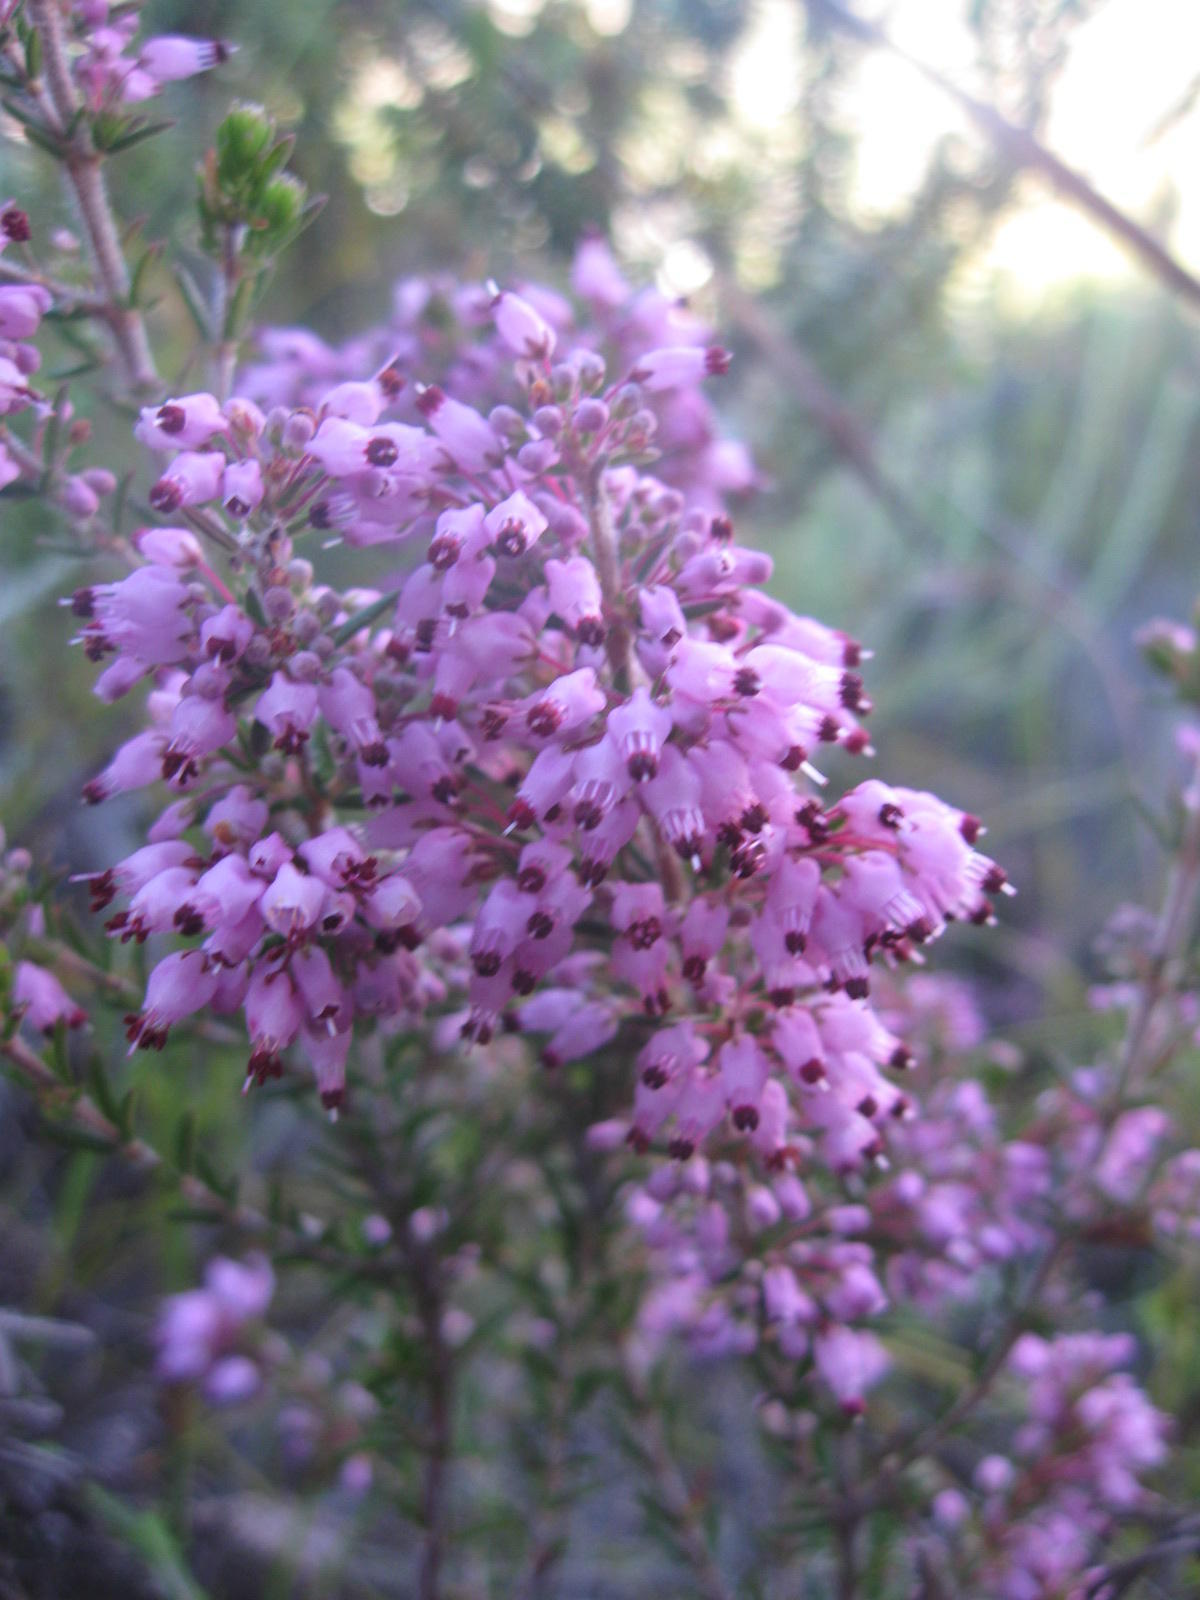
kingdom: Plantae
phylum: Tracheophyta
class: Magnoliopsida
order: Ericales
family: Ericaceae
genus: Erica
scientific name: Erica nudiflora
